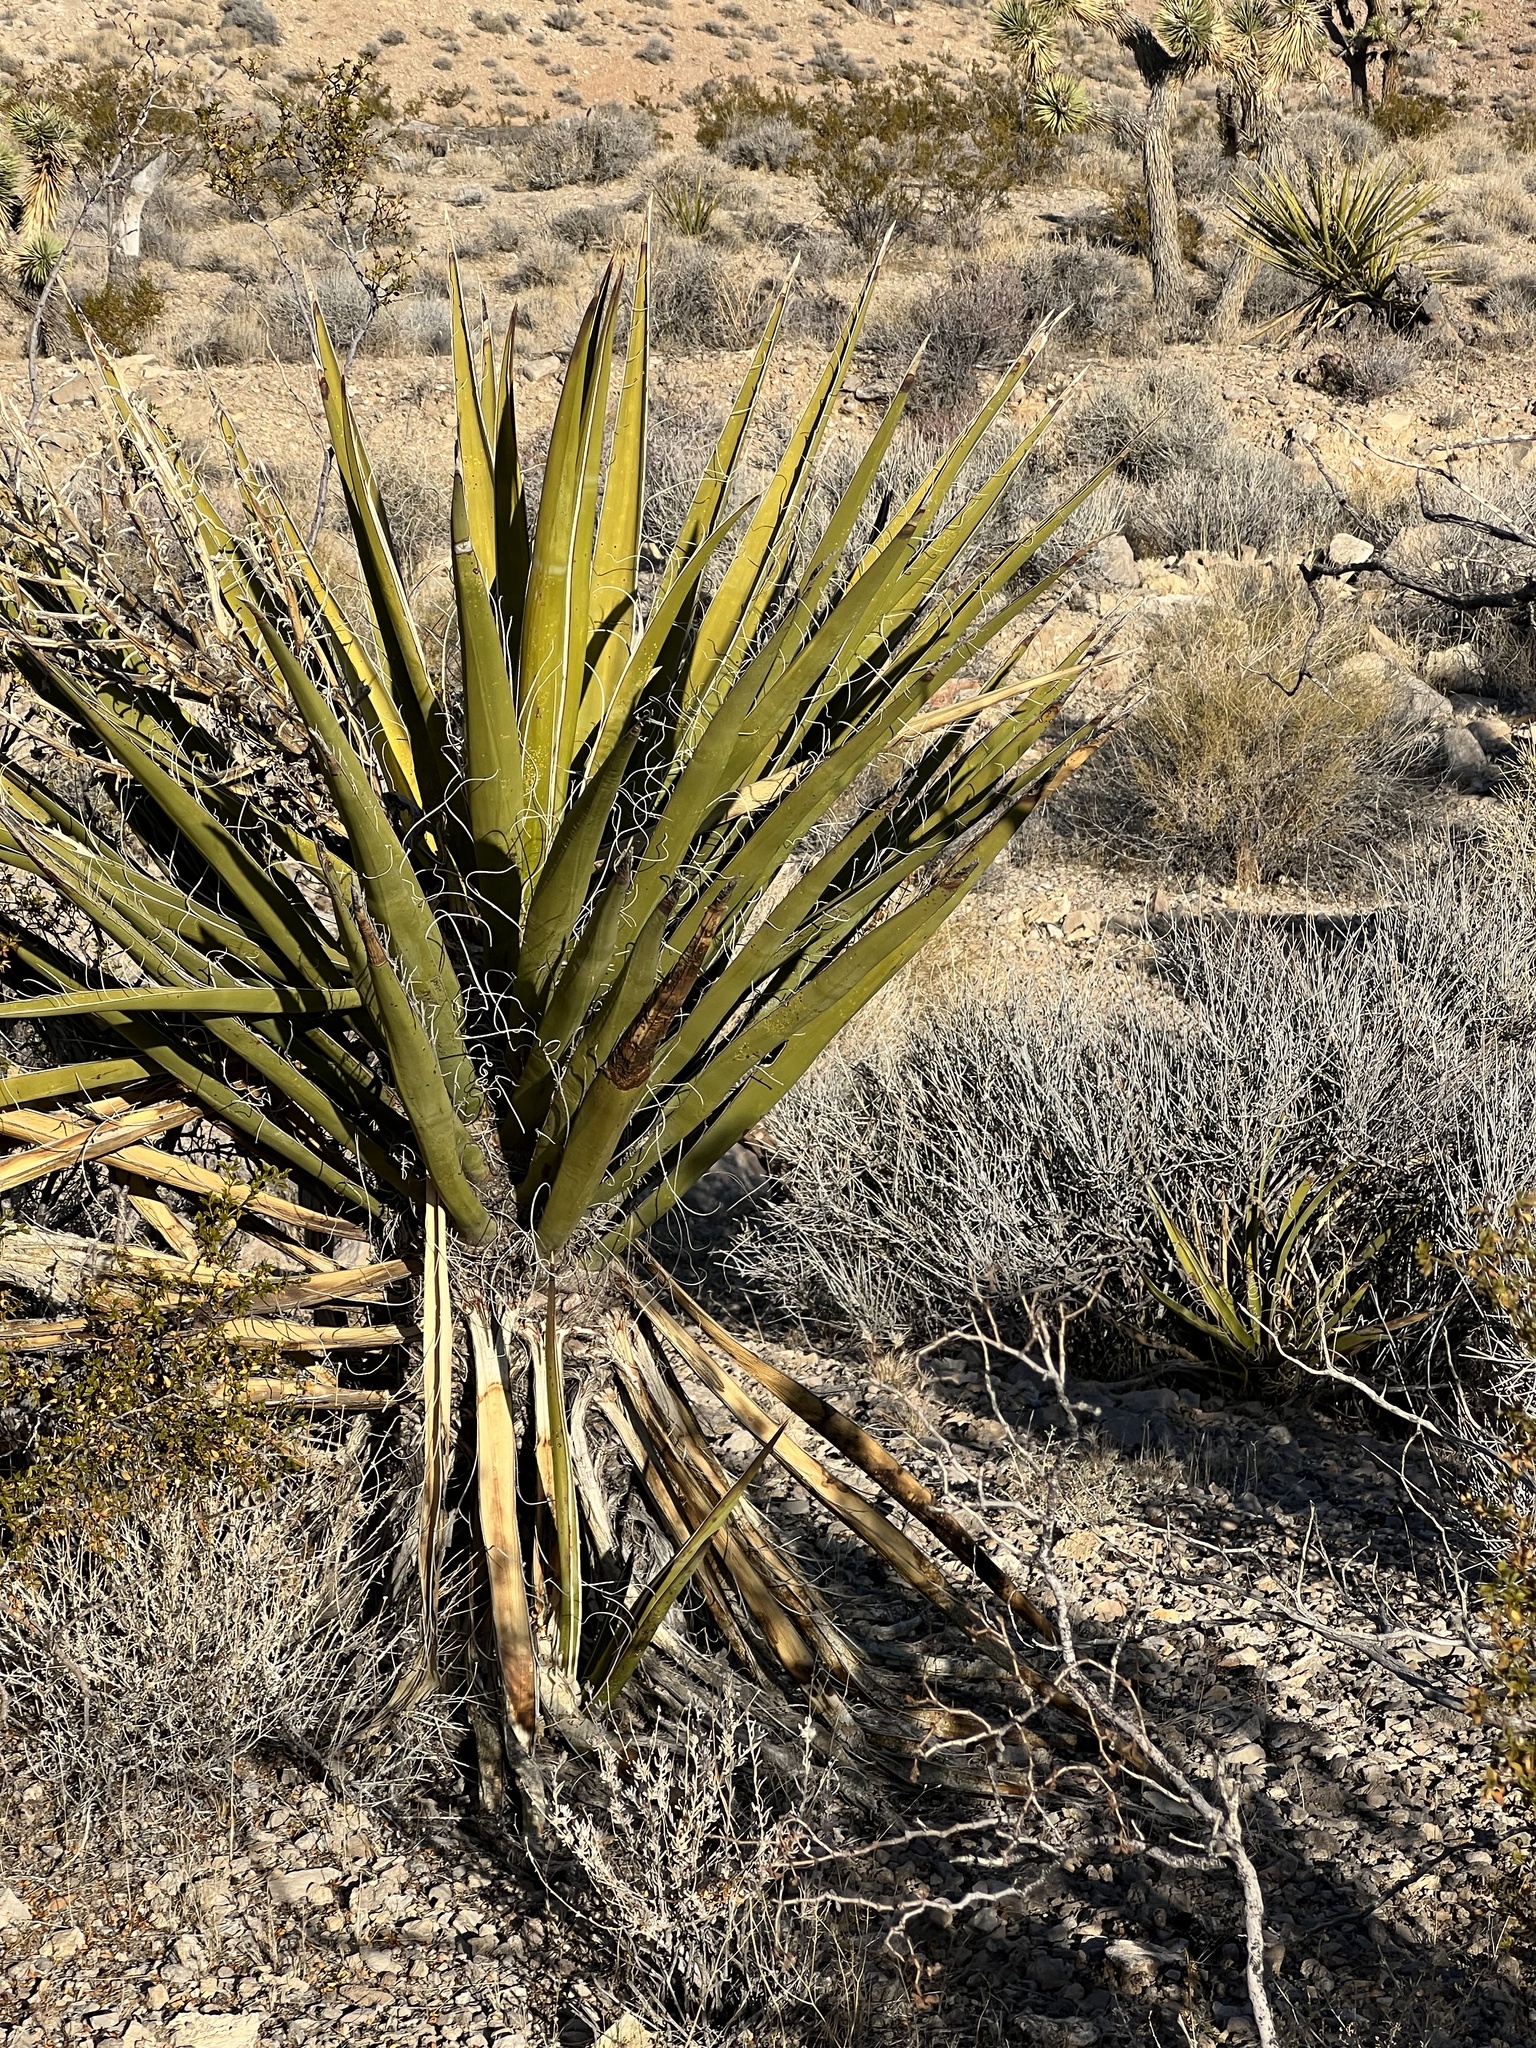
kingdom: Plantae
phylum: Tracheophyta
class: Liliopsida
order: Asparagales
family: Asparagaceae
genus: Yucca
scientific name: Yucca schidigera
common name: Mojave yucca
